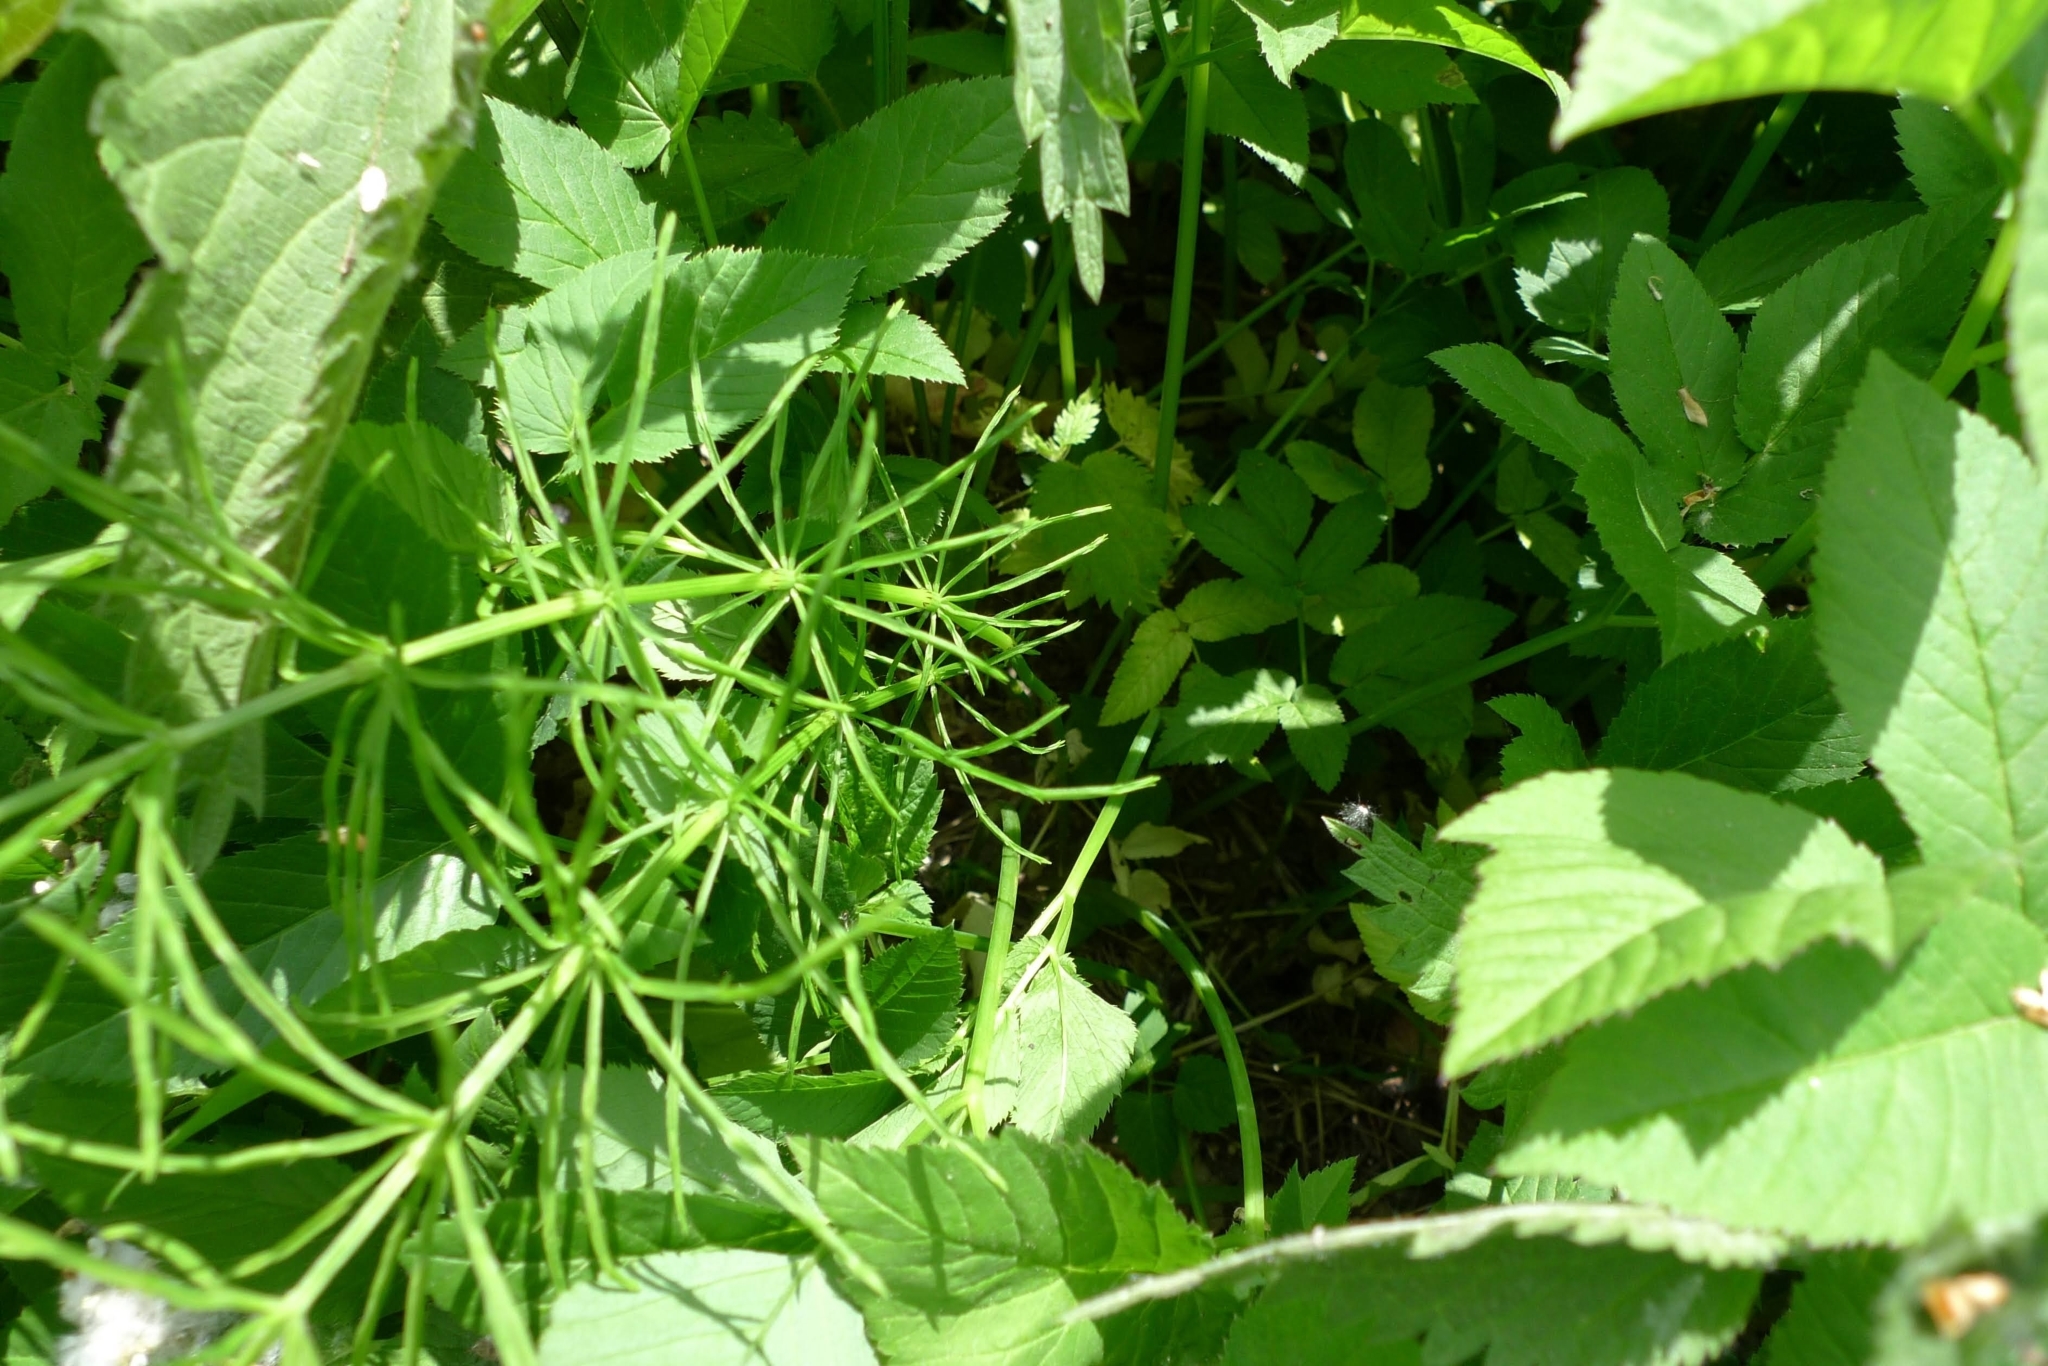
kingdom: Plantae
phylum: Tracheophyta
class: Polypodiopsida
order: Equisetales
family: Equisetaceae
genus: Equisetum
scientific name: Equisetum arvense
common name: Field horsetail
